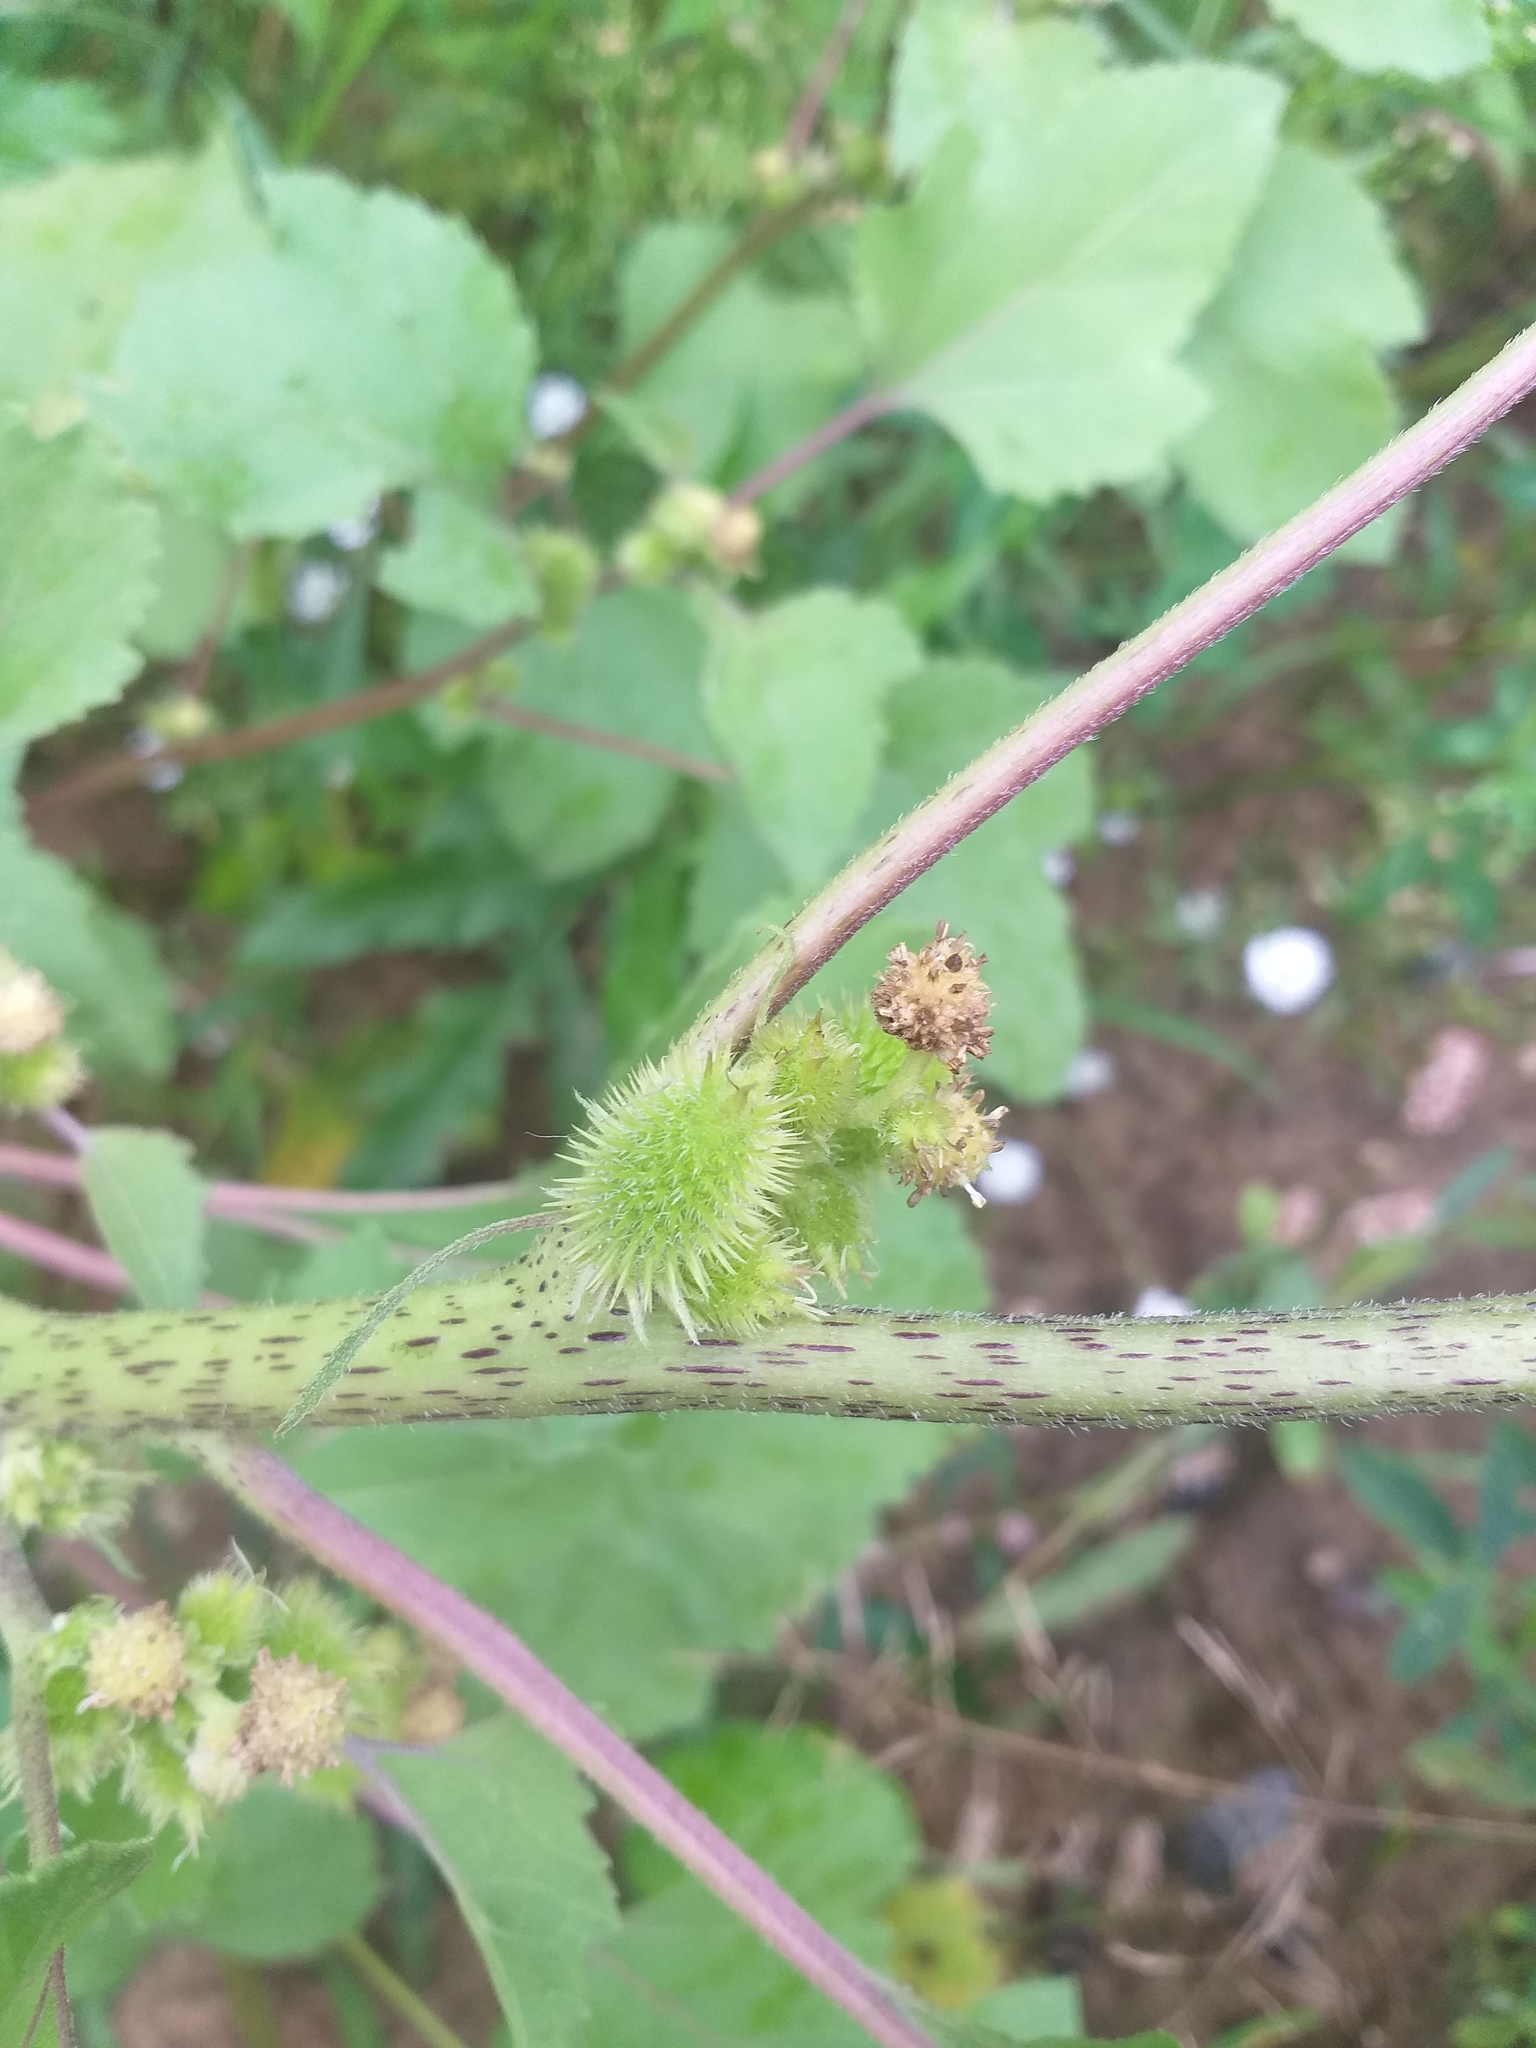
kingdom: Plantae
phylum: Tracheophyta
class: Magnoliopsida
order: Asterales
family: Asteraceae
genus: Xanthium
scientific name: Xanthium orientale
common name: Californian burr
